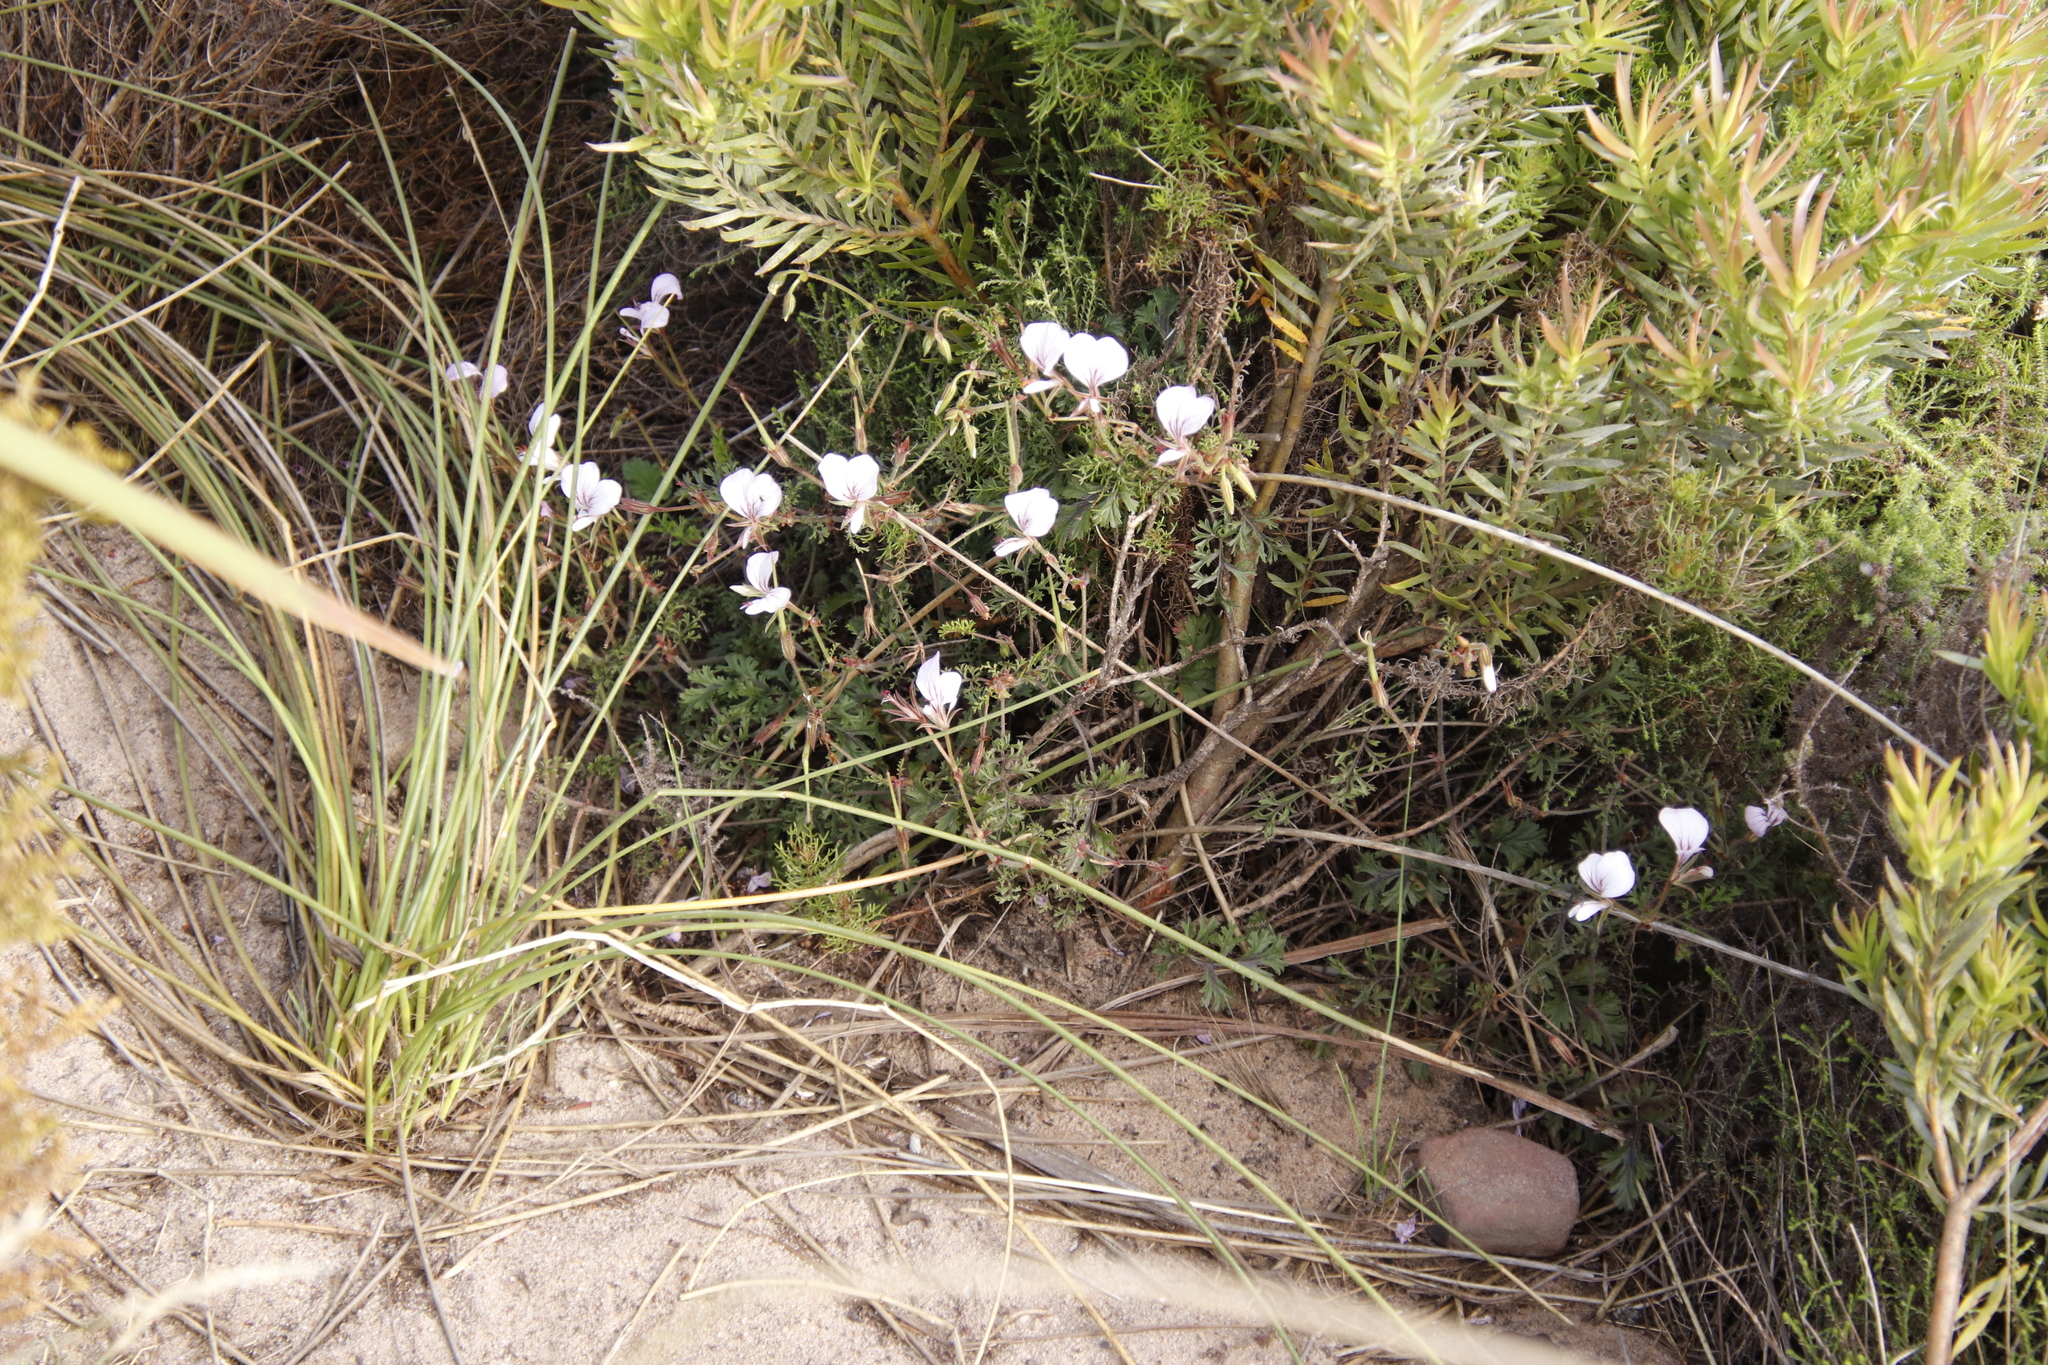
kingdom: Plantae
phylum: Tracheophyta
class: Magnoliopsida
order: Geraniales
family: Geraniaceae
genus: Pelargonium
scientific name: Pelargonium longicaule
